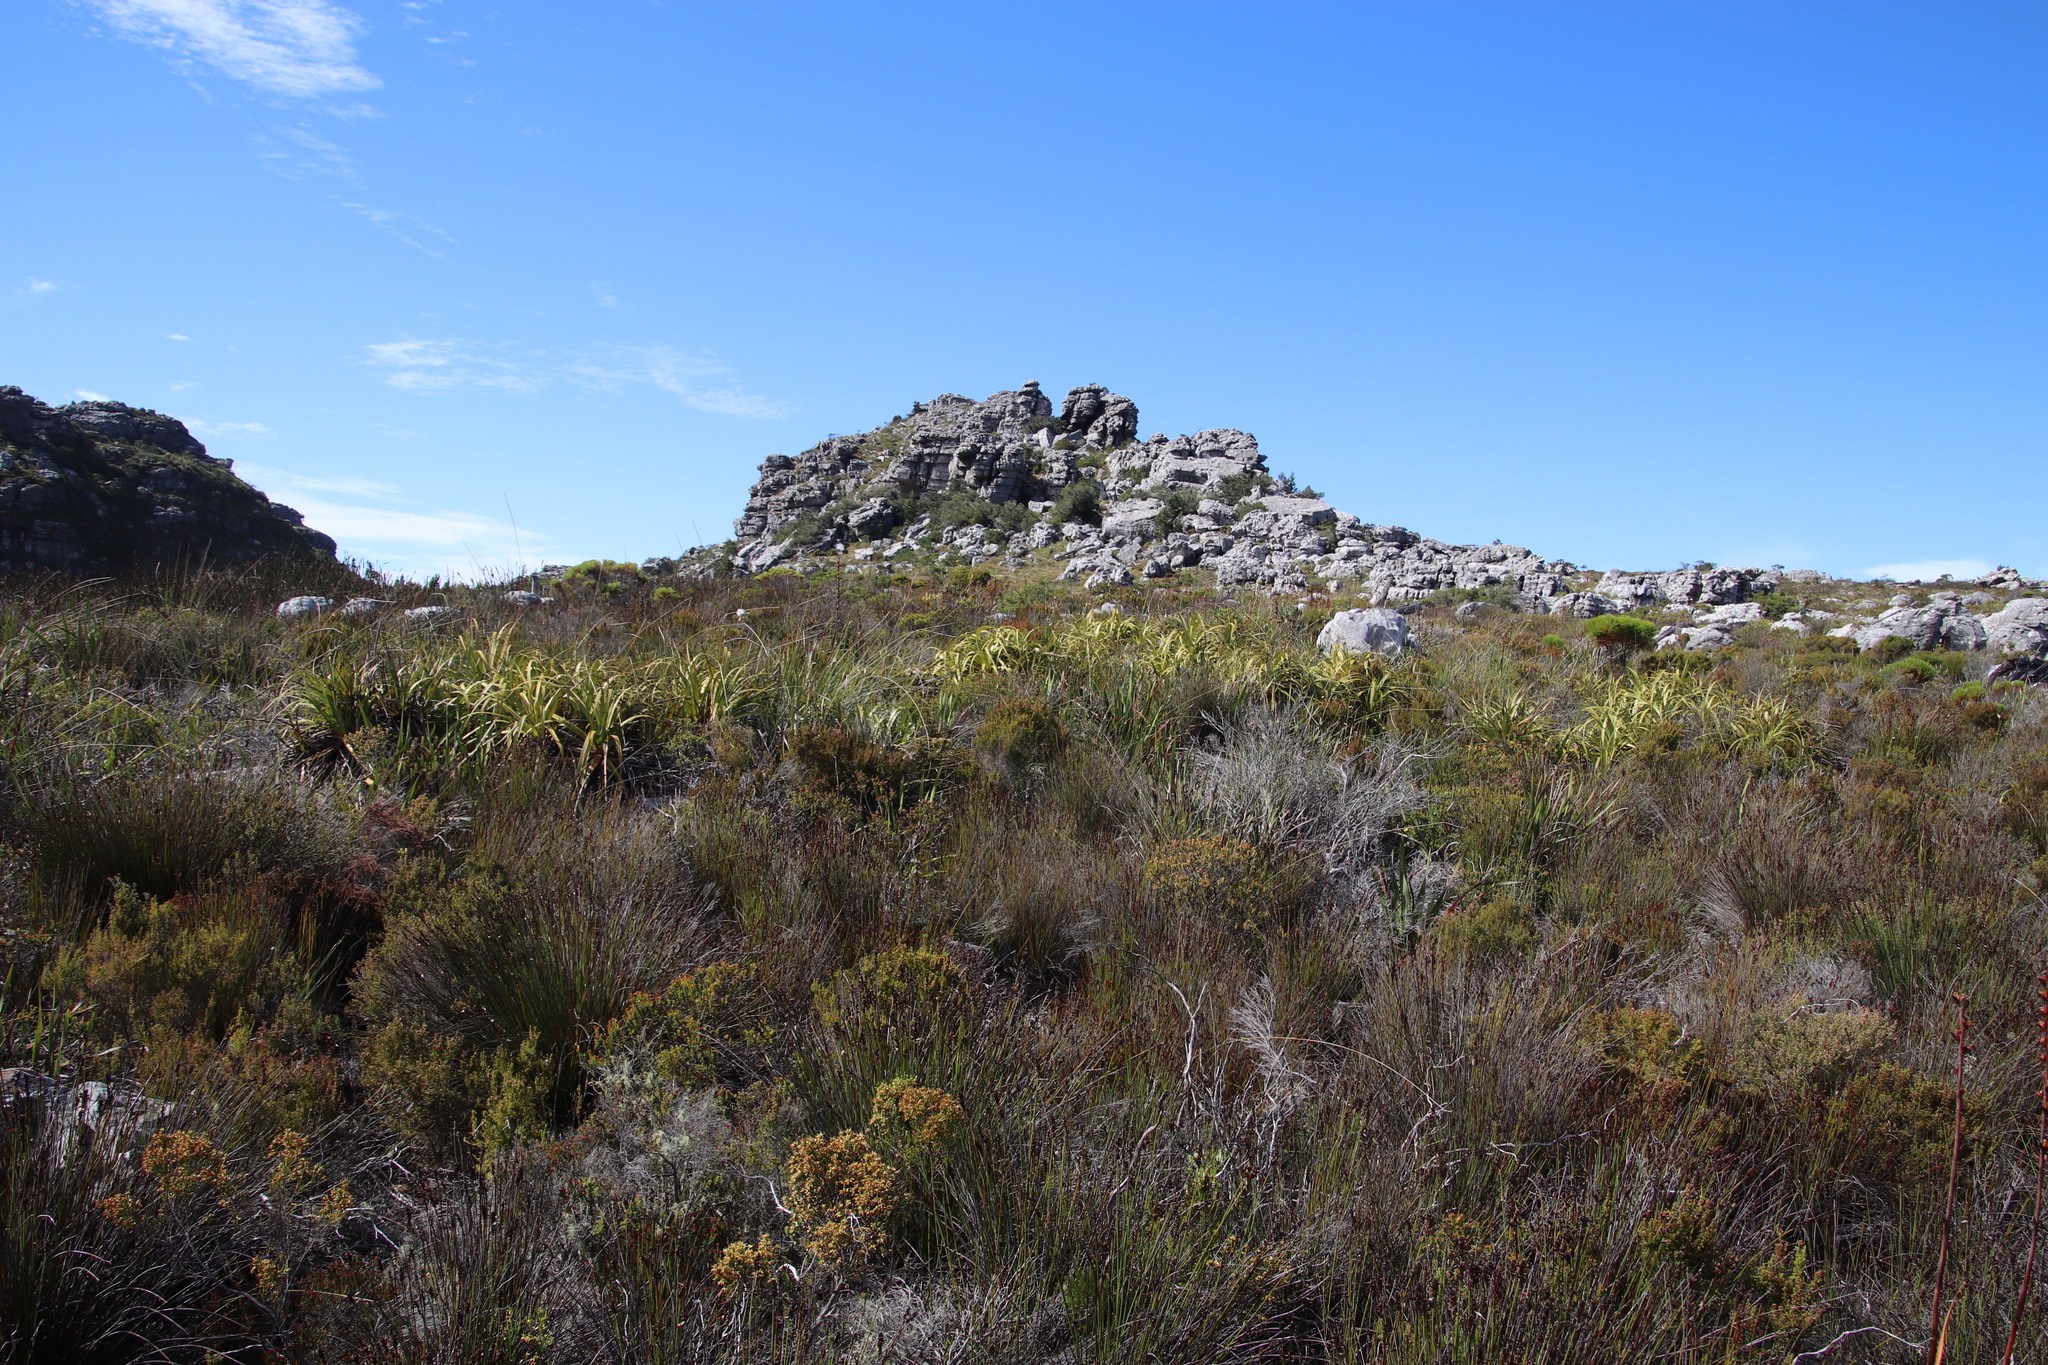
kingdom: Plantae
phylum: Tracheophyta
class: Liliopsida
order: Poales
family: Cyperaceae
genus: Tetraria
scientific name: Tetraria thermalis
